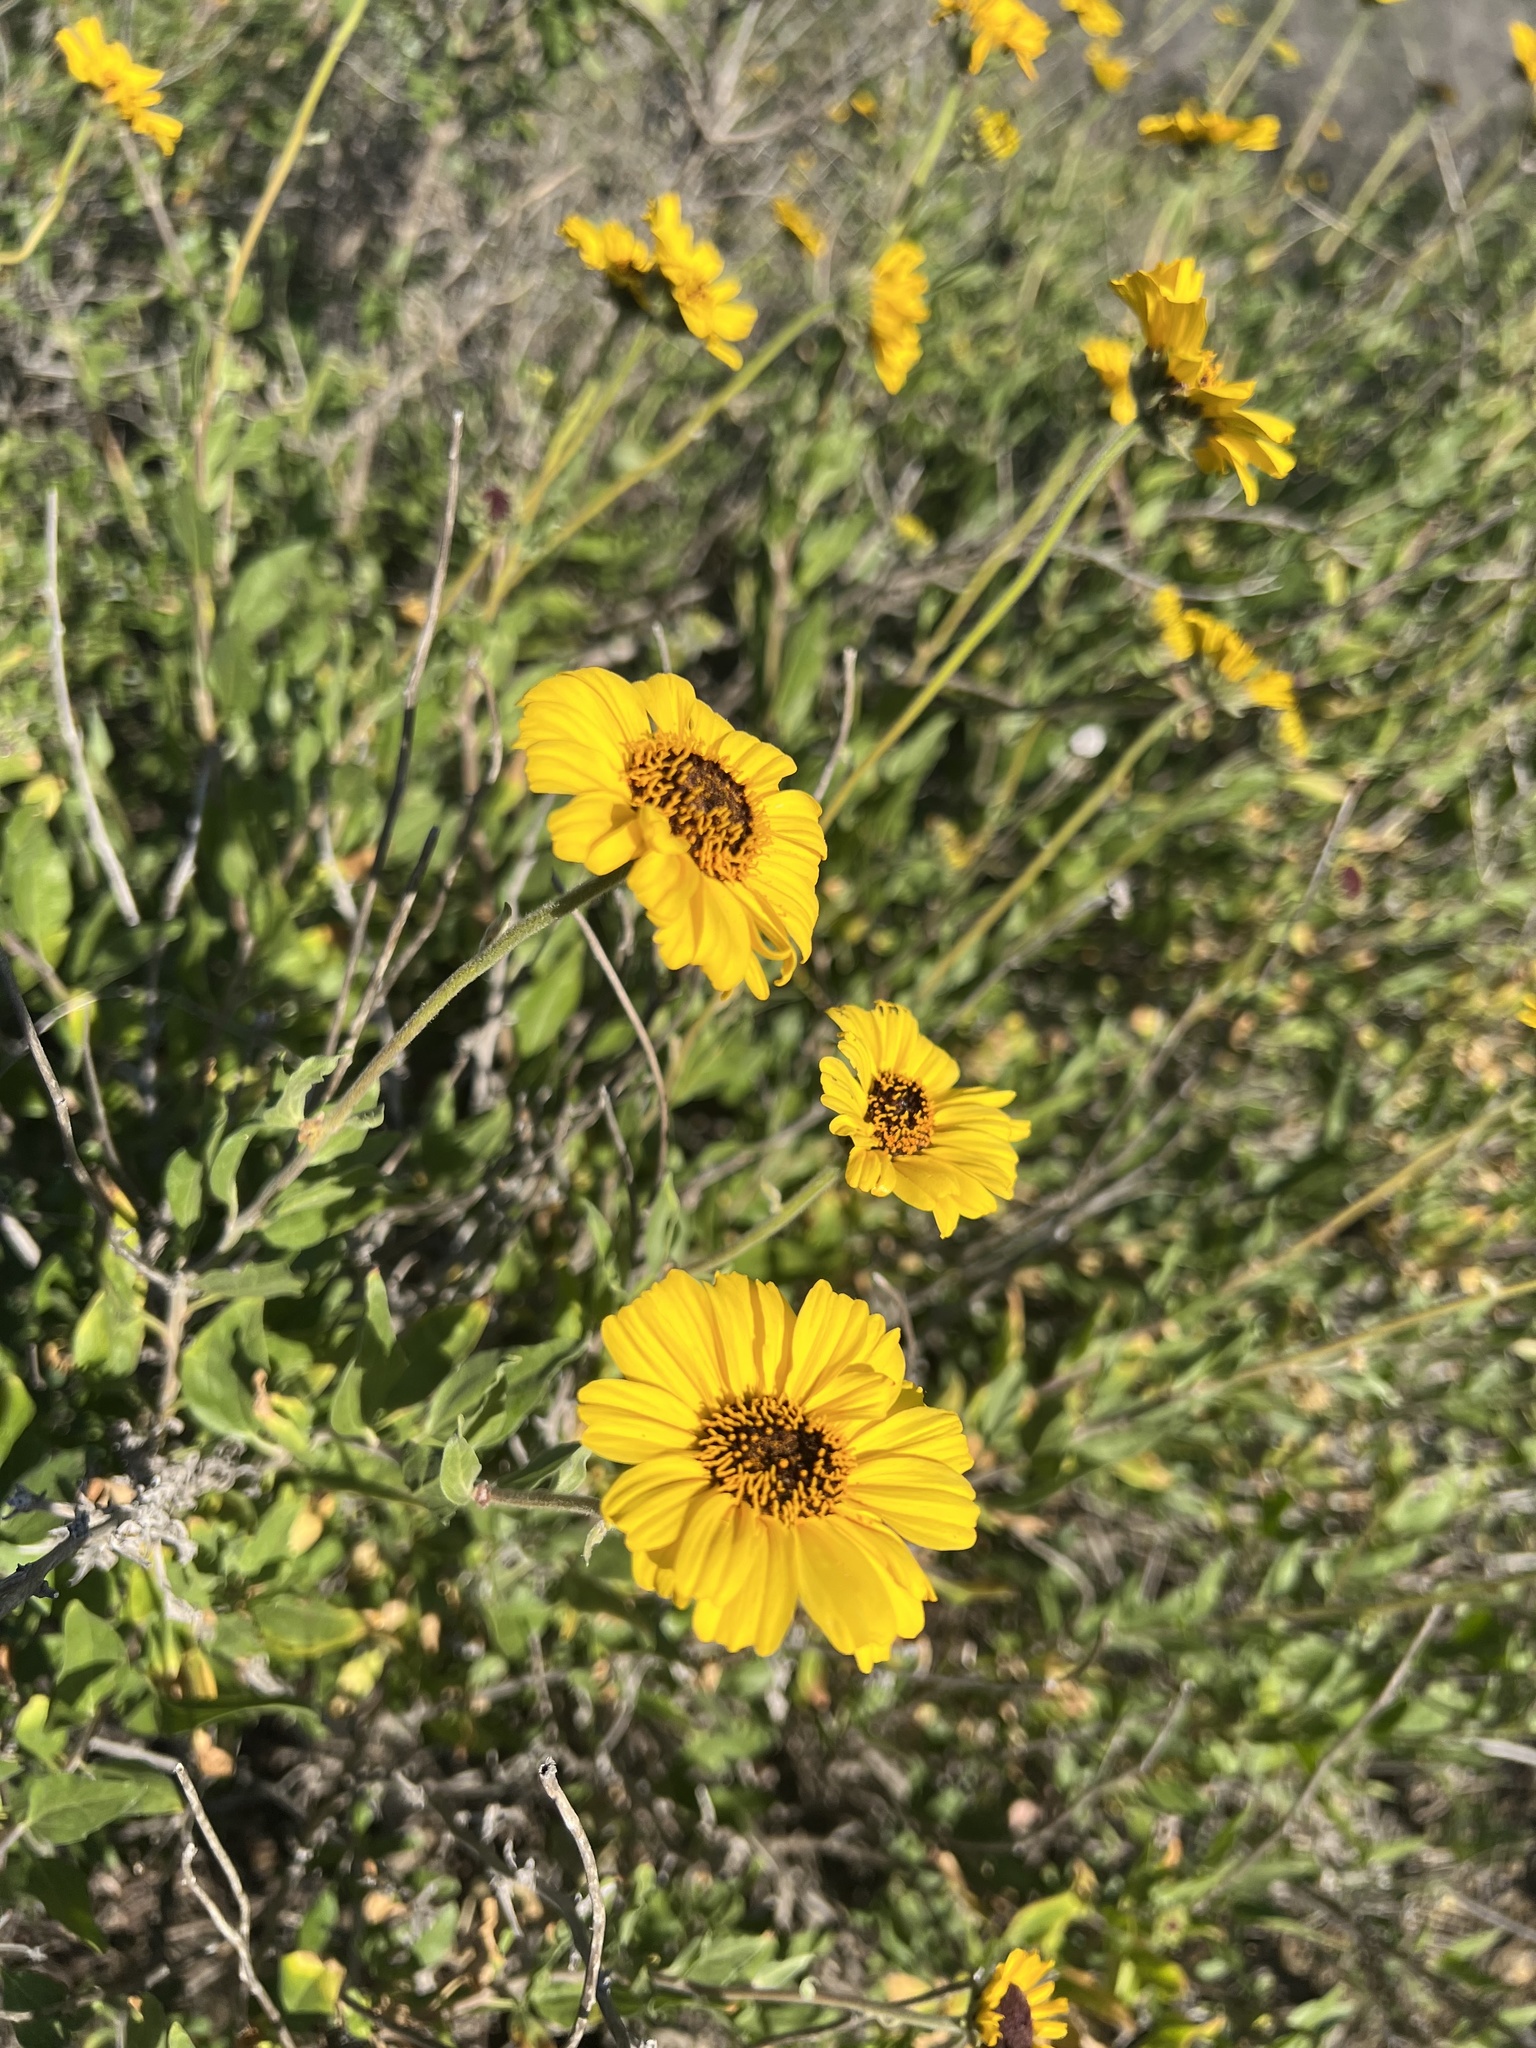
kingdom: Plantae
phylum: Tracheophyta
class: Magnoliopsida
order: Asterales
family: Asteraceae
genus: Encelia
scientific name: Encelia californica
